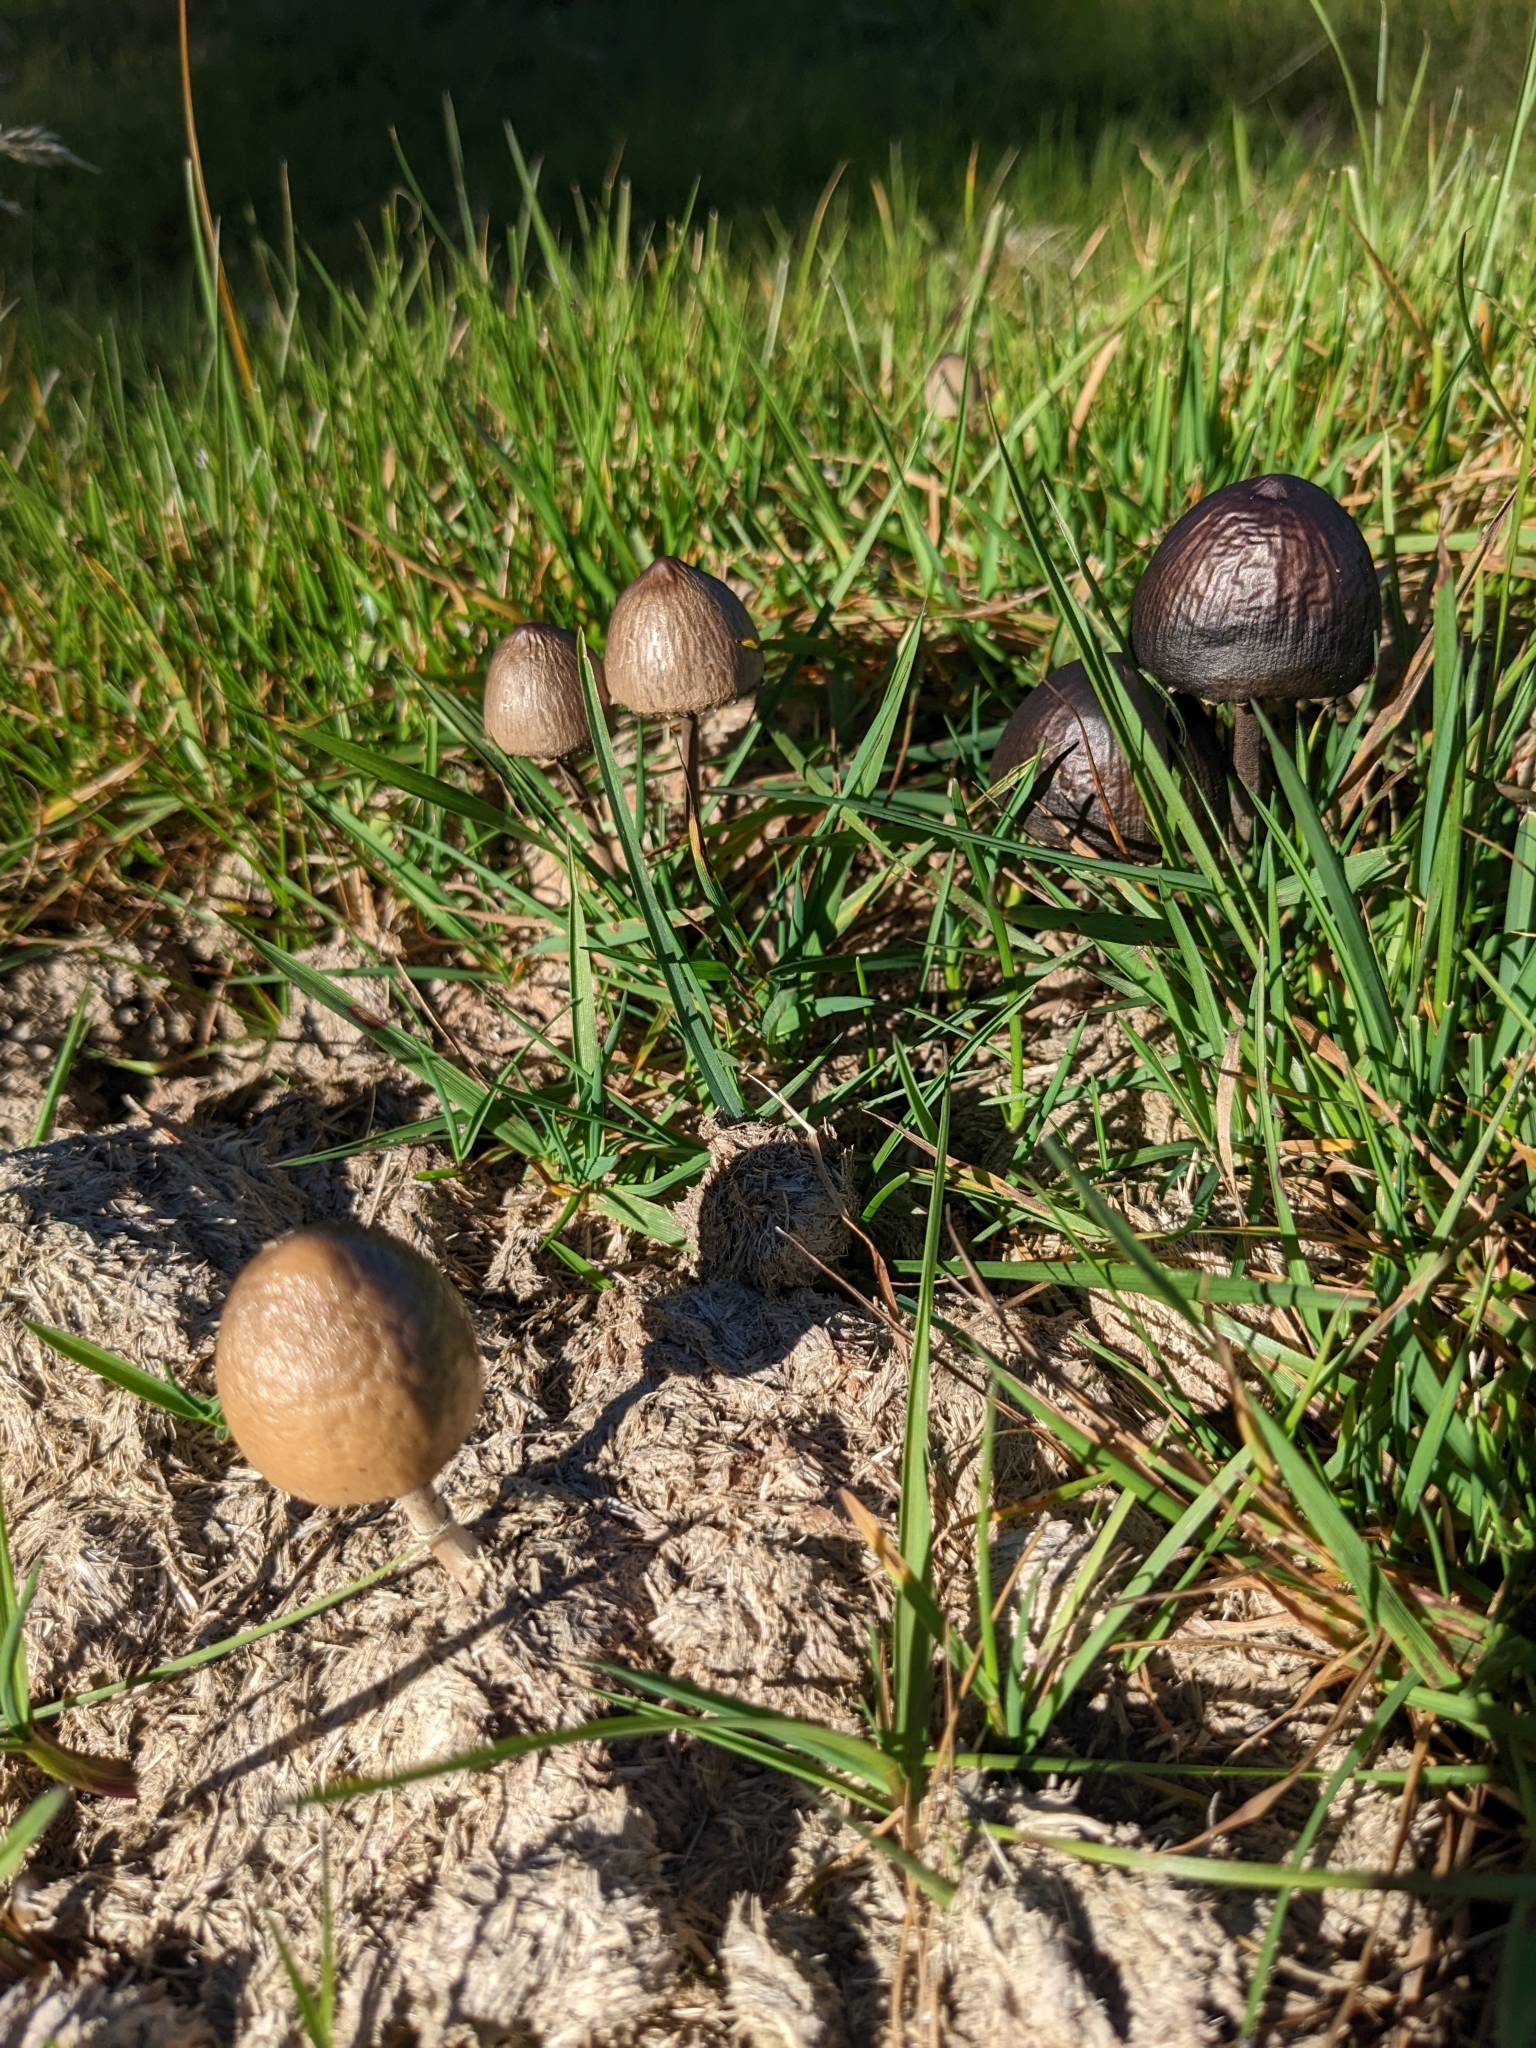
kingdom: Fungi
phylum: Basidiomycota
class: Agaricomycetes
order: Agaricales
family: Bolbitiaceae
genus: Panaeolus
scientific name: Panaeolus semiovatus
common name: Shiny mottlegill
